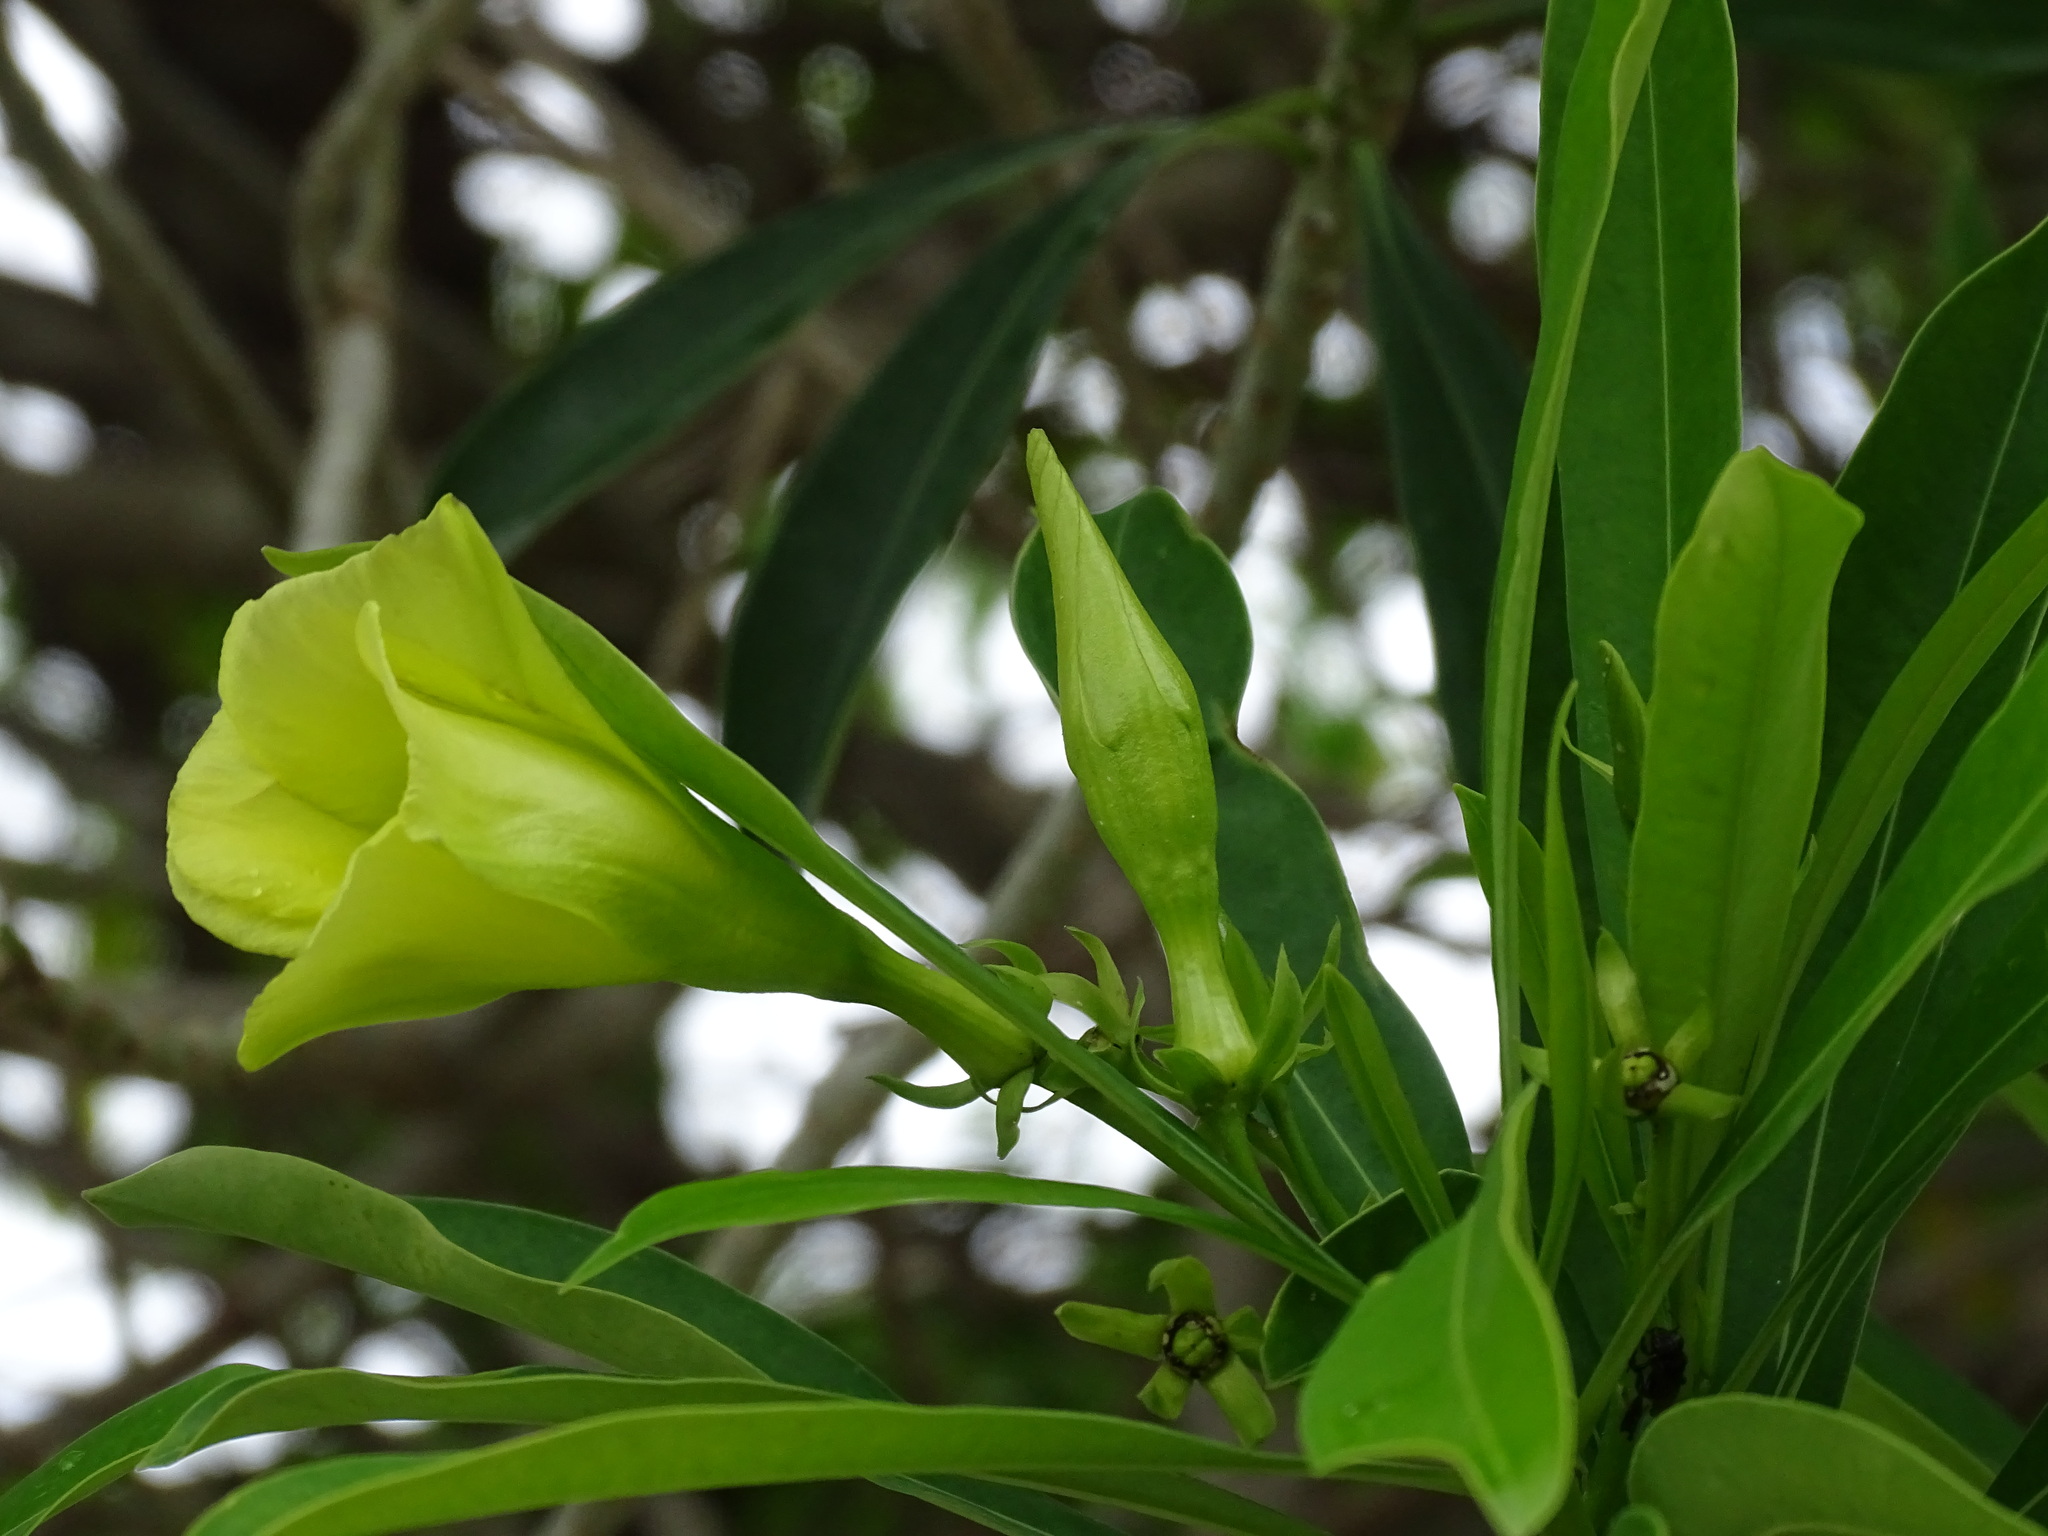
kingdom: Plantae
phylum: Tracheophyta
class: Magnoliopsida
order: Gentianales
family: Apocynaceae
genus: Cascabela
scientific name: Cascabela gaumeri
